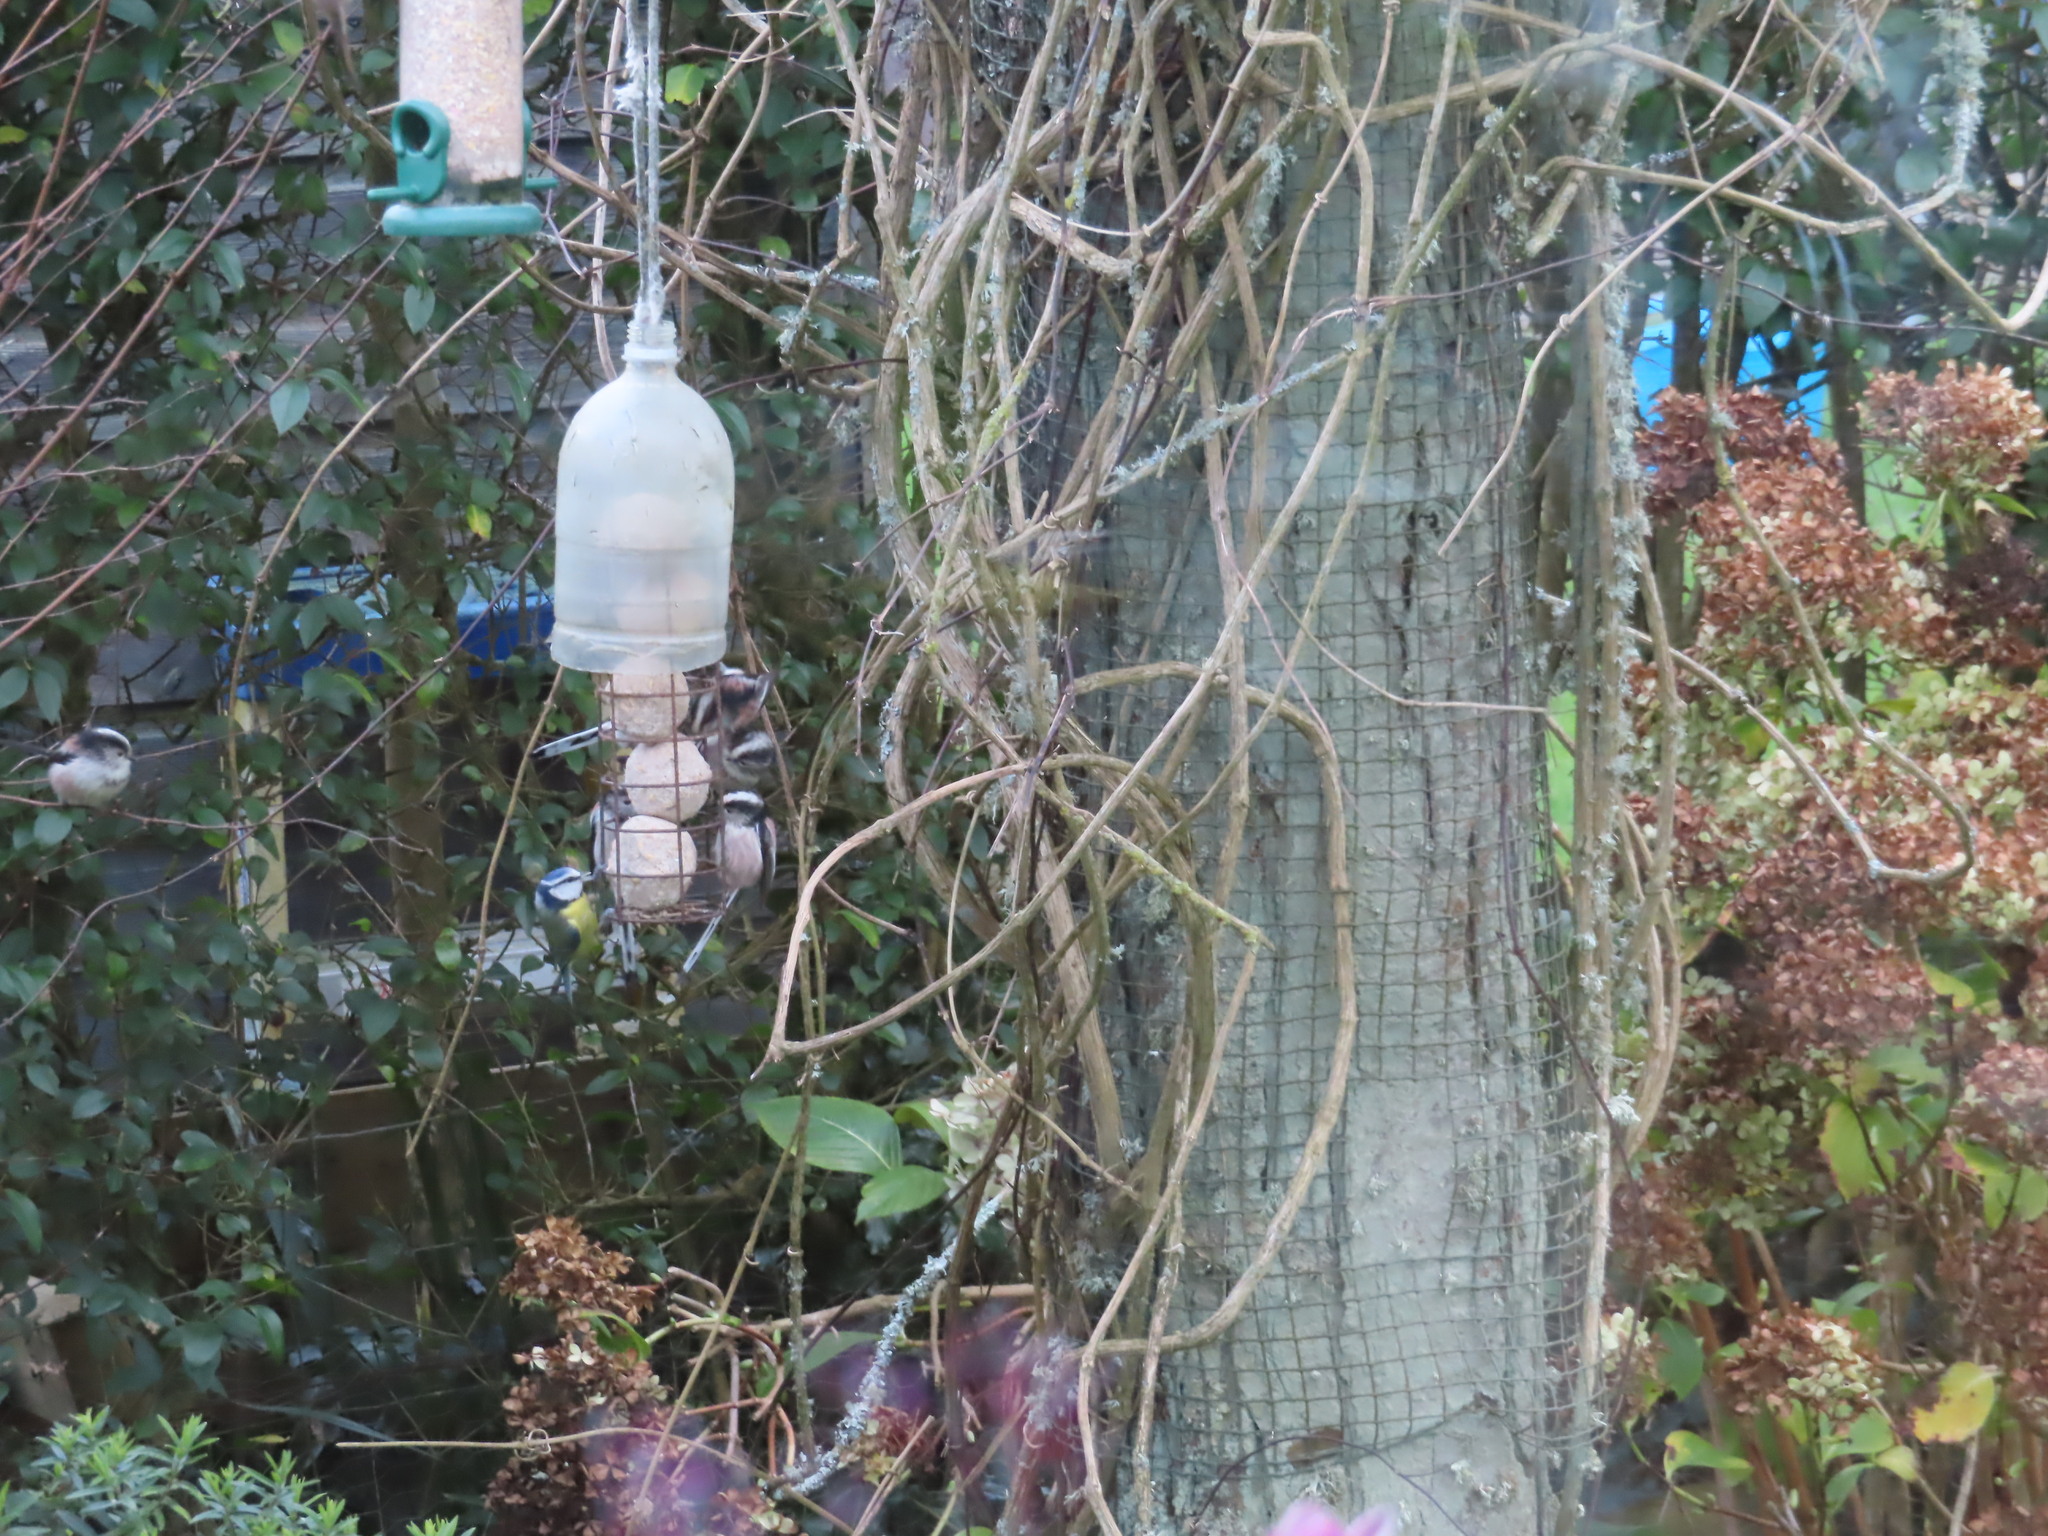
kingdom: Animalia
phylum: Chordata
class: Aves
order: Passeriformes
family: Aegithalidae
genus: Aegithalos
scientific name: Aegithalos caudatus
